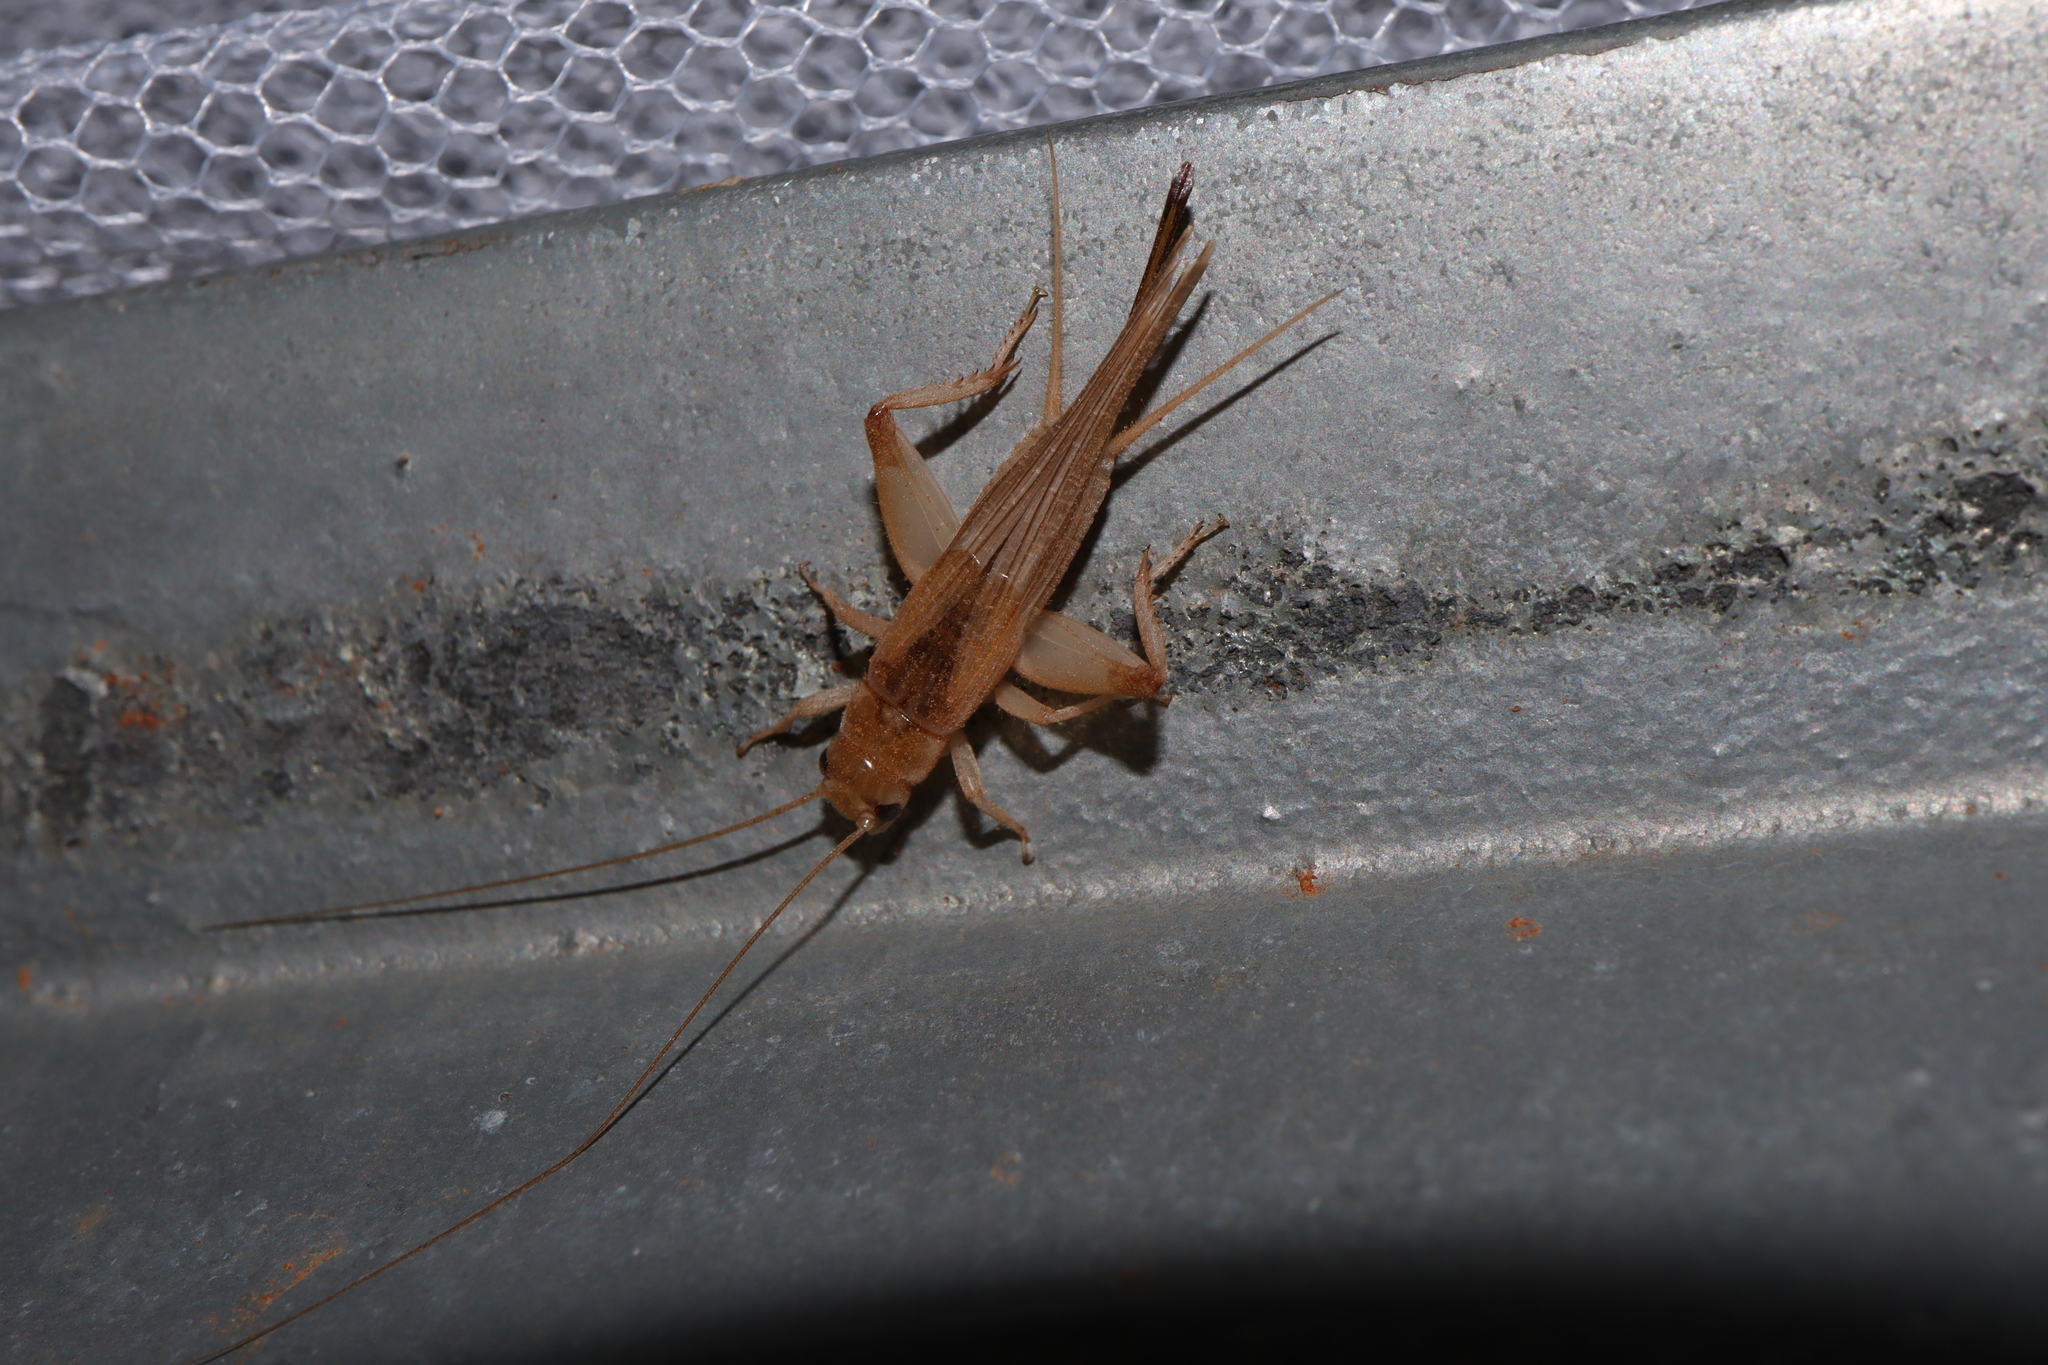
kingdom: Animalia
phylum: Arthropoda
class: Insecta
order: Orthoptera
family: Gryllidae
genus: Cyrtoprosopus
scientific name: Cyrtoprosopus stramineus
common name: Straw-coloured ground cricket
